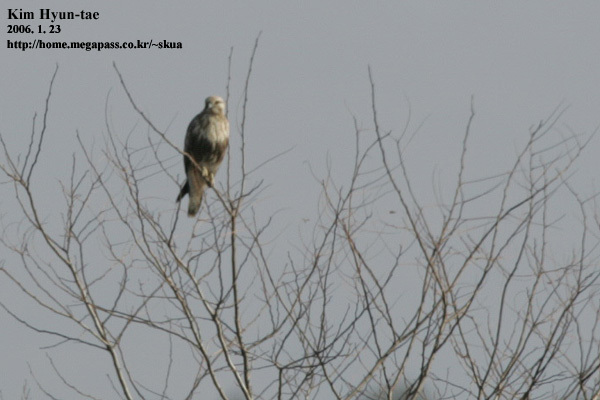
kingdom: Animalia
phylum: Chordata
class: Aves
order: Accipitriformes
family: Accipitridae
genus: Buteo
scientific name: Buteo lagopus
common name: Rough-legged buzzard
